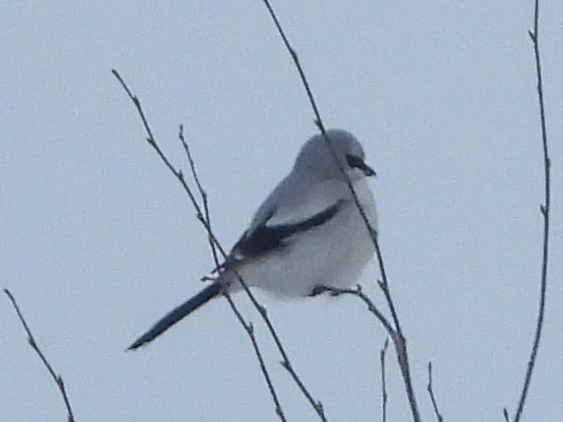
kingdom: Animalia
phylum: Chordata
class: Aves
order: Passeriformes
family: Laniidae
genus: Lanius
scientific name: Lanius excubitor
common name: Great grey shrike
